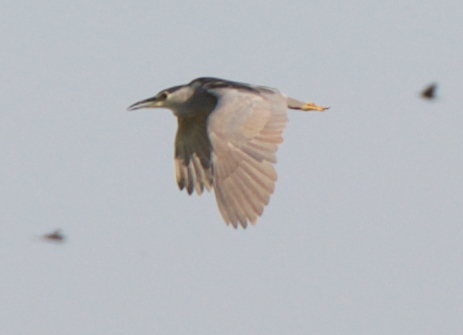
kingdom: Animalia
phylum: Chordata
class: Aves
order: Pelecaniformes
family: Ardeidae
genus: Nycticorax
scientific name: Nycticorax nycticorax
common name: Black-crowned night heron
